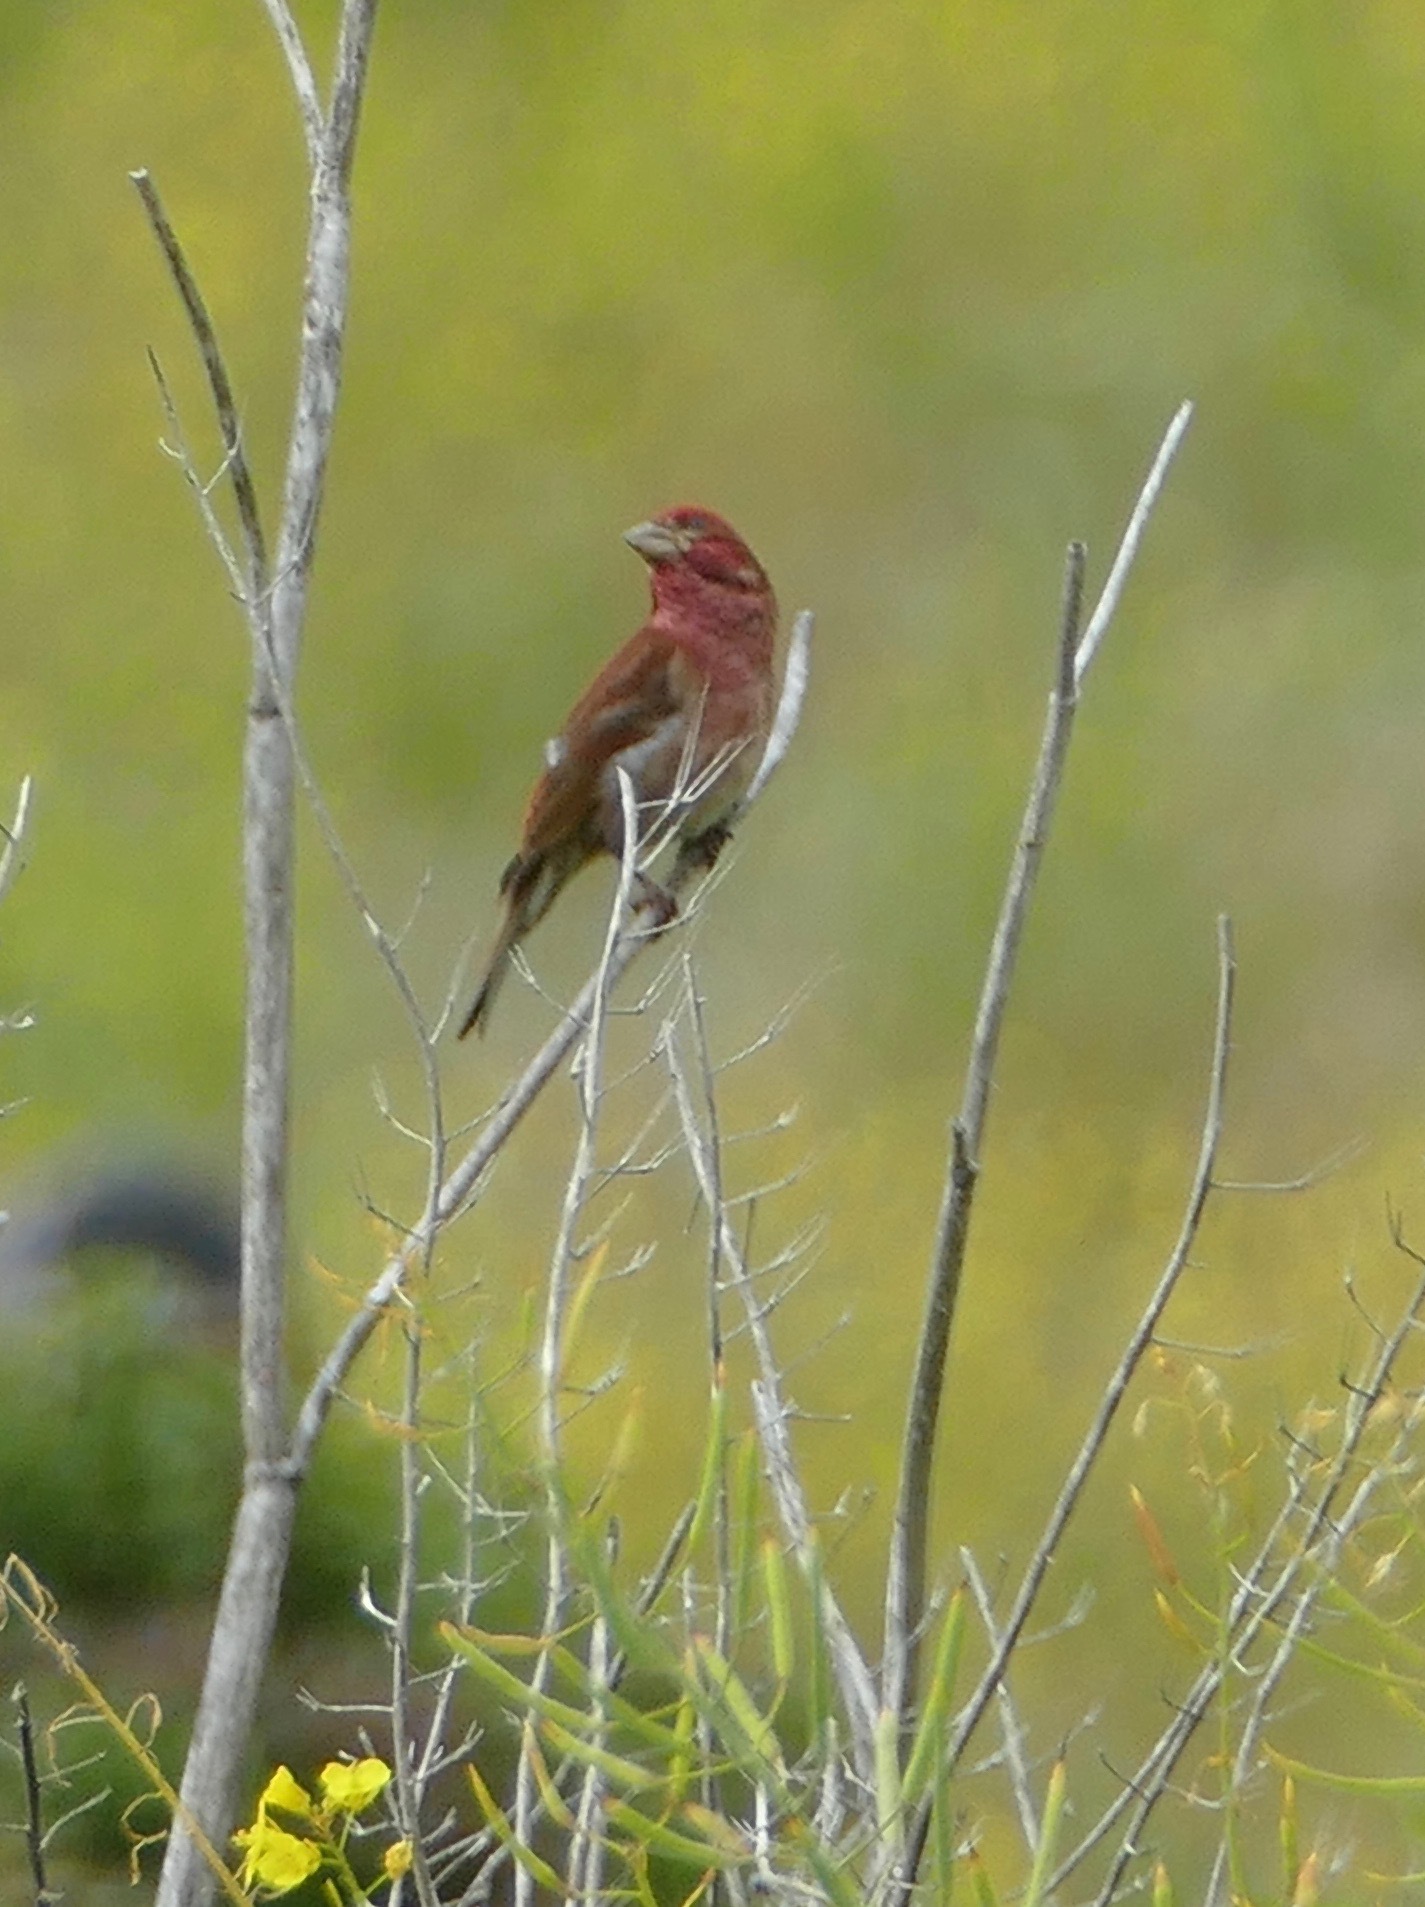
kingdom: Animalia
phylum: Chordata
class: Aves
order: Passeriformes
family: Fringillidae
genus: Haemorhous
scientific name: Haemorhous purpureus
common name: Purple finch
